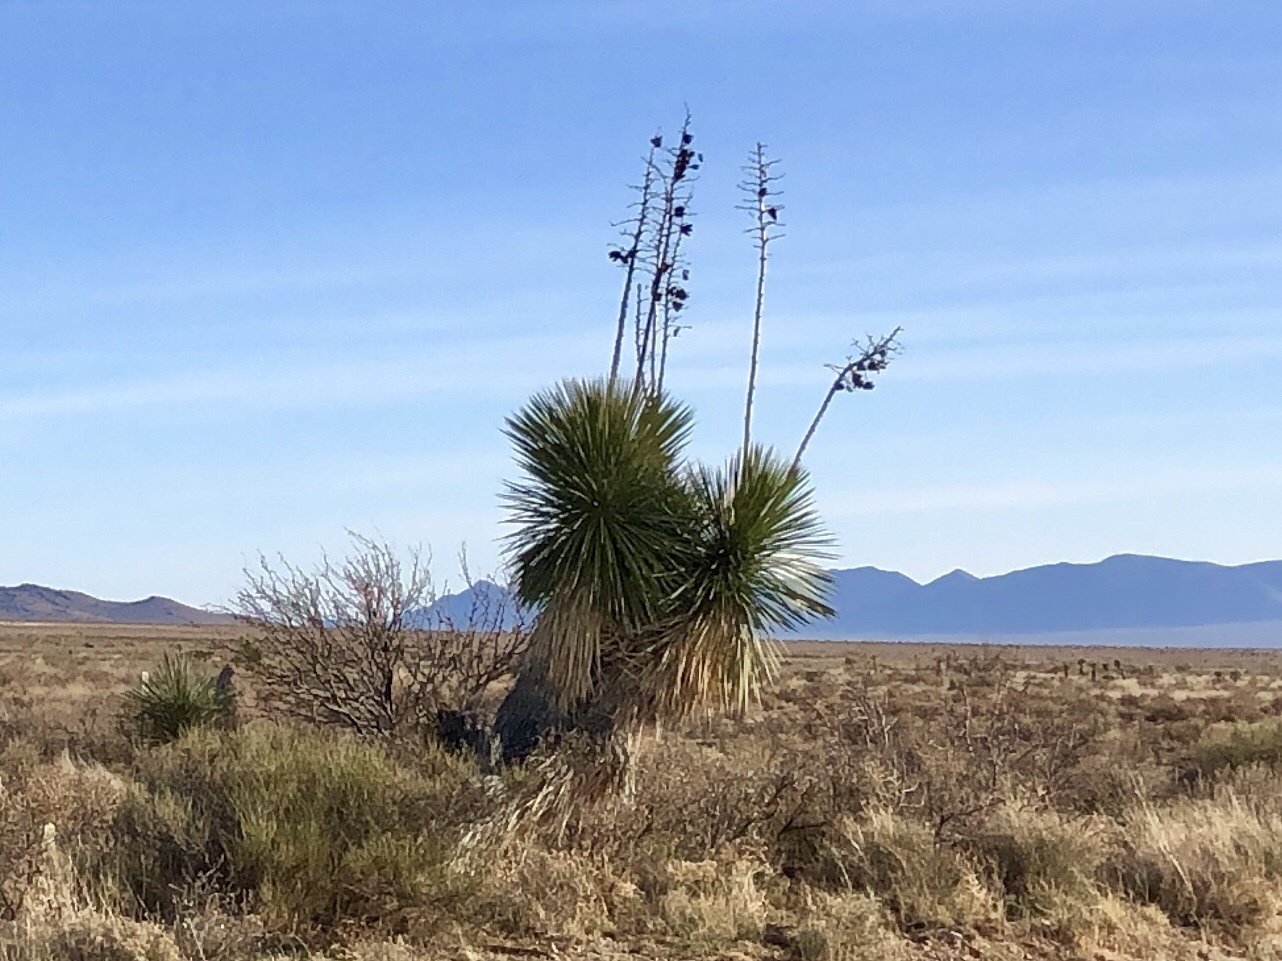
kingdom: Plantae
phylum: Tracheophyta
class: Liliopsida
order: Asparagales
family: Asparagaceae
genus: Yucca
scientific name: Yucca elata
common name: Palmella
